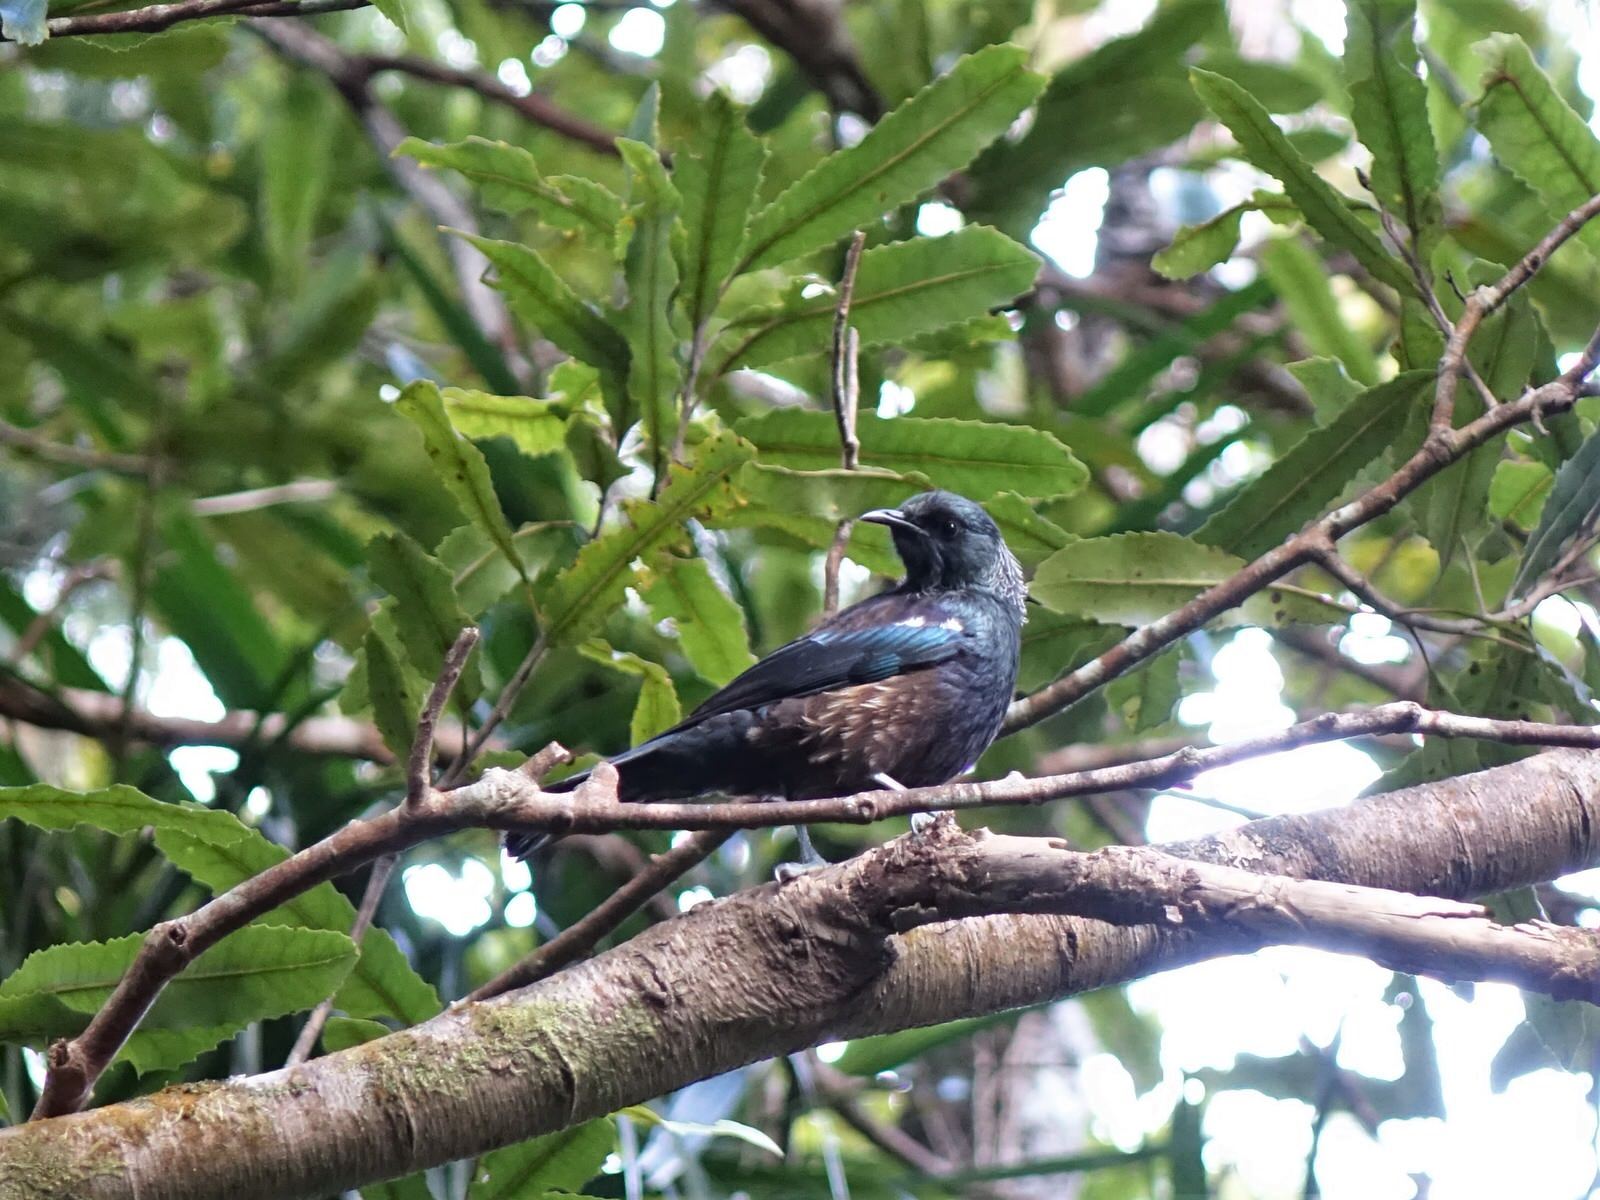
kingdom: Animalia
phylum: Chordata
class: Aves
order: Passeriformes
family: Meliphagidae
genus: Prosthemadera
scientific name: Prosthemadera novaeseelandiae
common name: Tui
